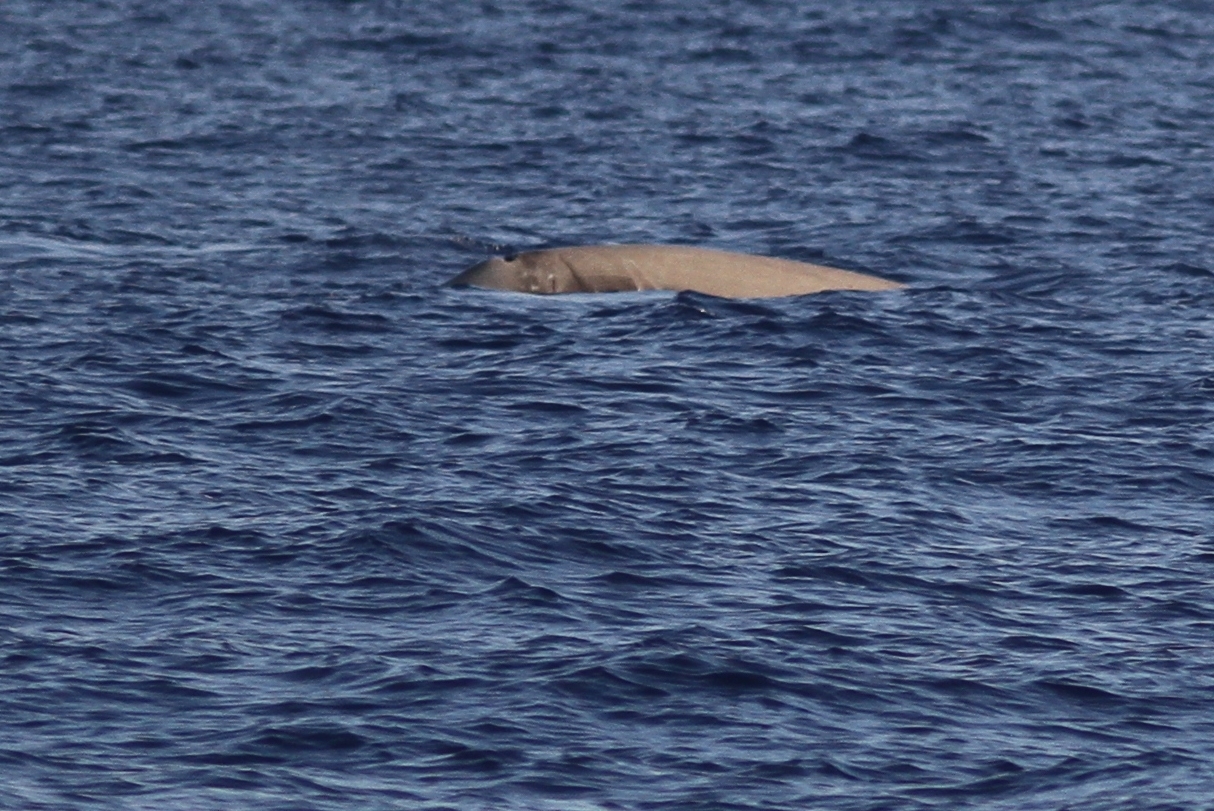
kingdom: Animalia
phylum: Chordata
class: Mammalia
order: Cetacea
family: Hyperoodontidae
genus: Ziphius
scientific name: Ziphius cavirostris
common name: Cuvier's beaked whale
